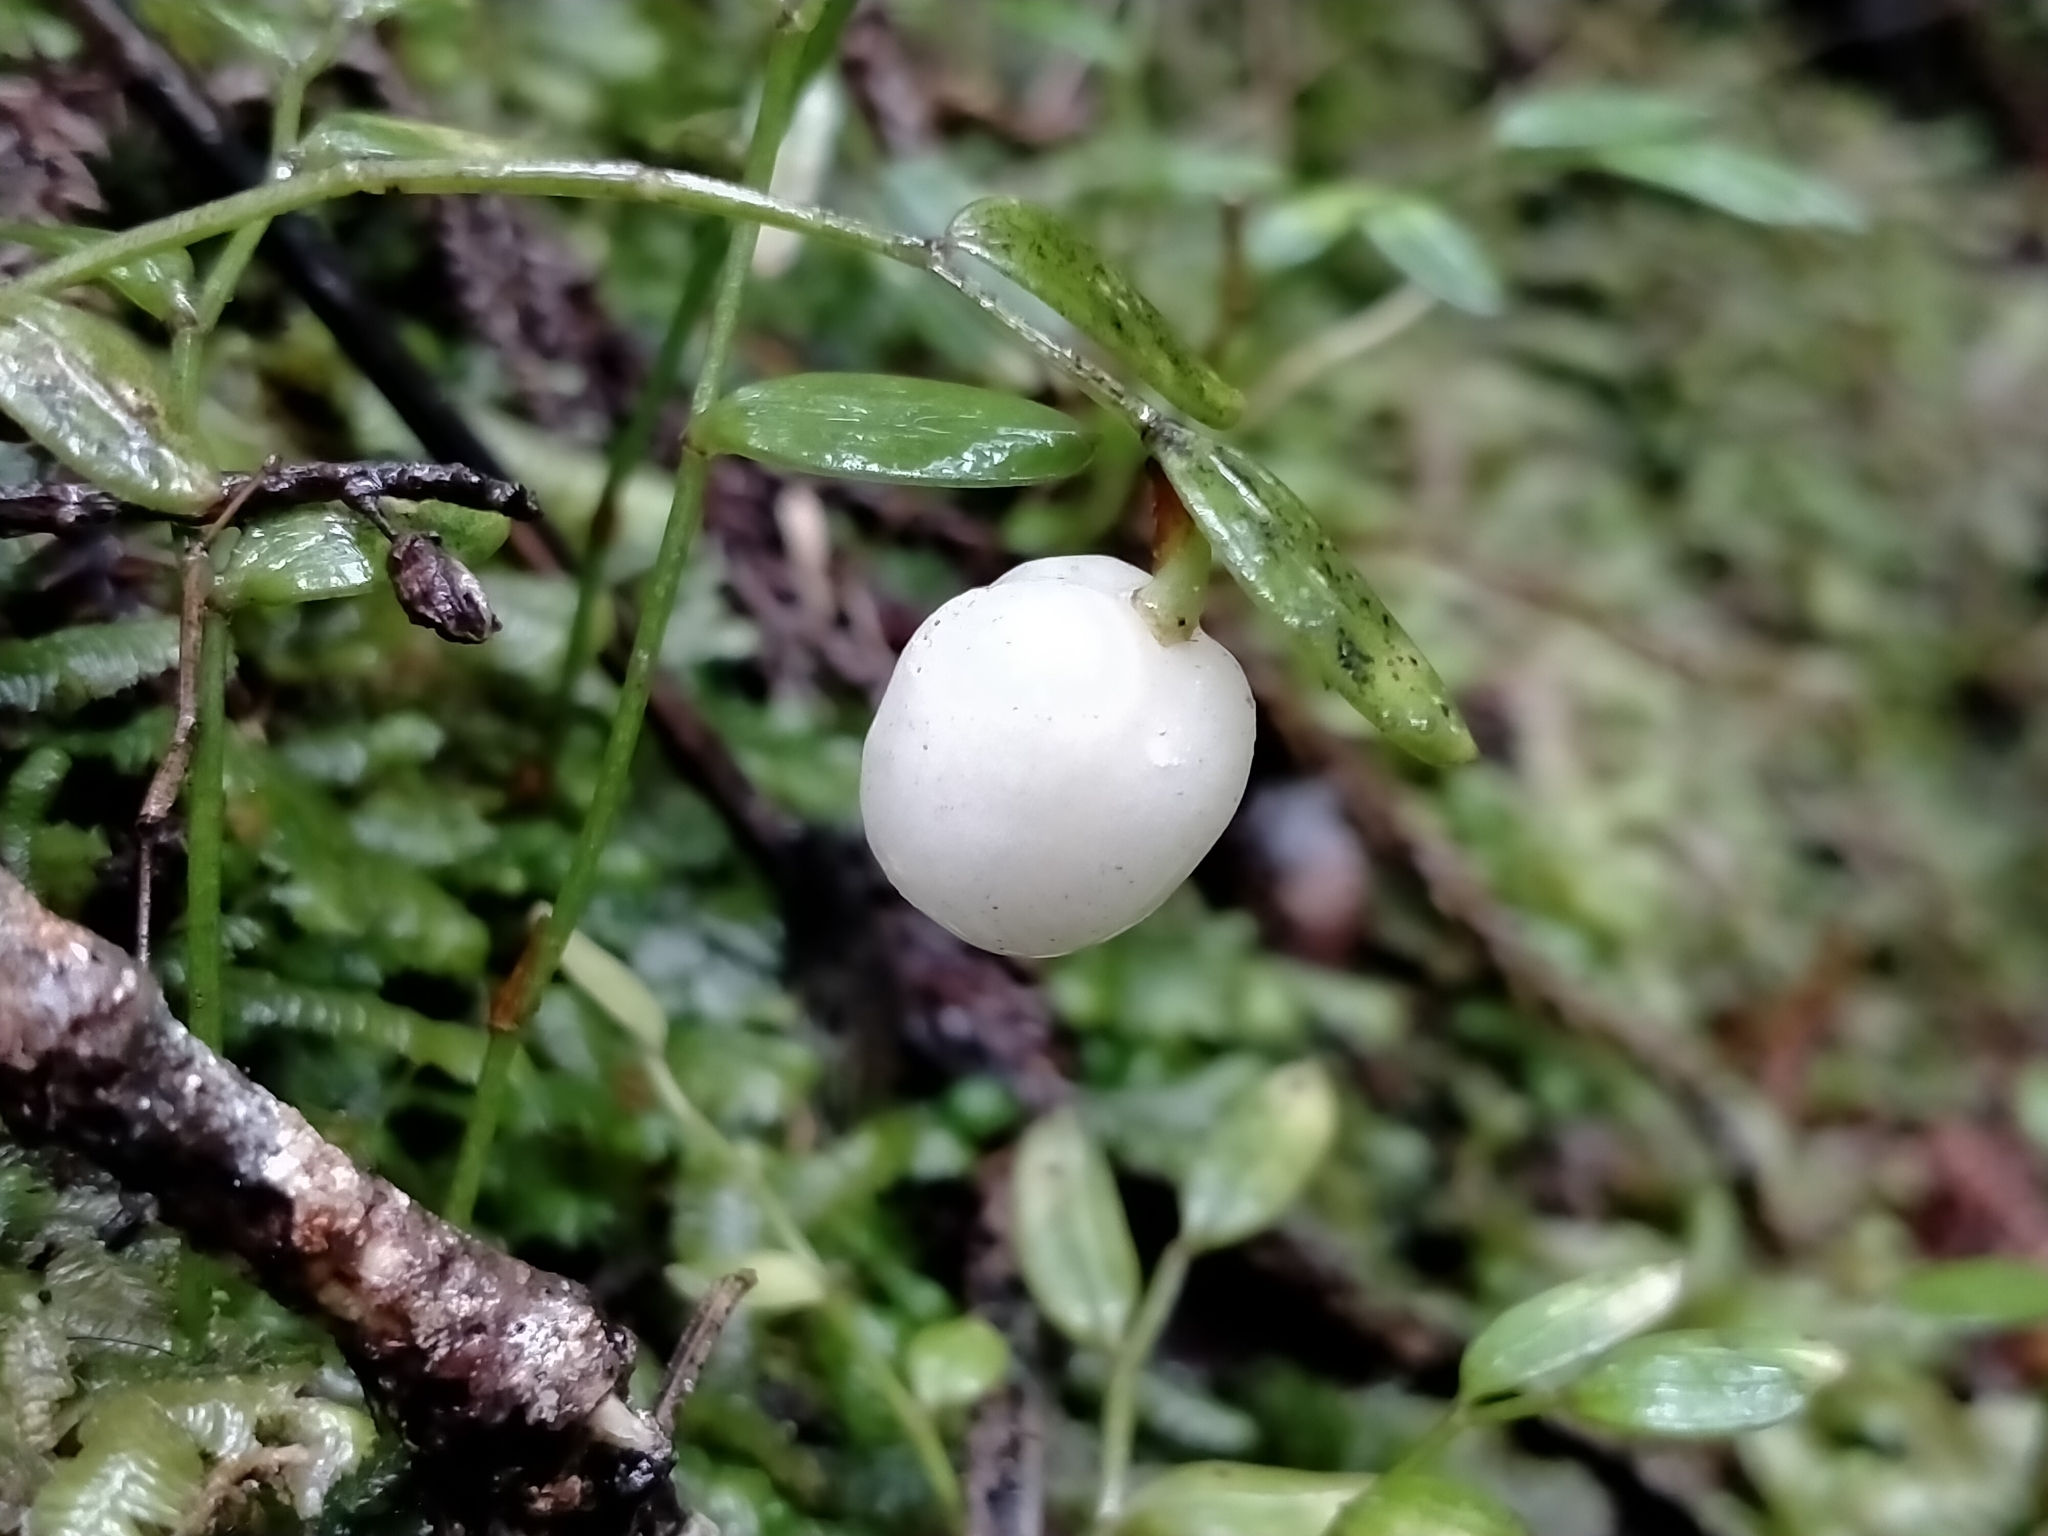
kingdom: Plantae
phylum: Tracheophyta
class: Liliopsida
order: Liliales
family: Alstroemeriaceae
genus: Luzuriaga
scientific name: Luzuriaga parviflora
